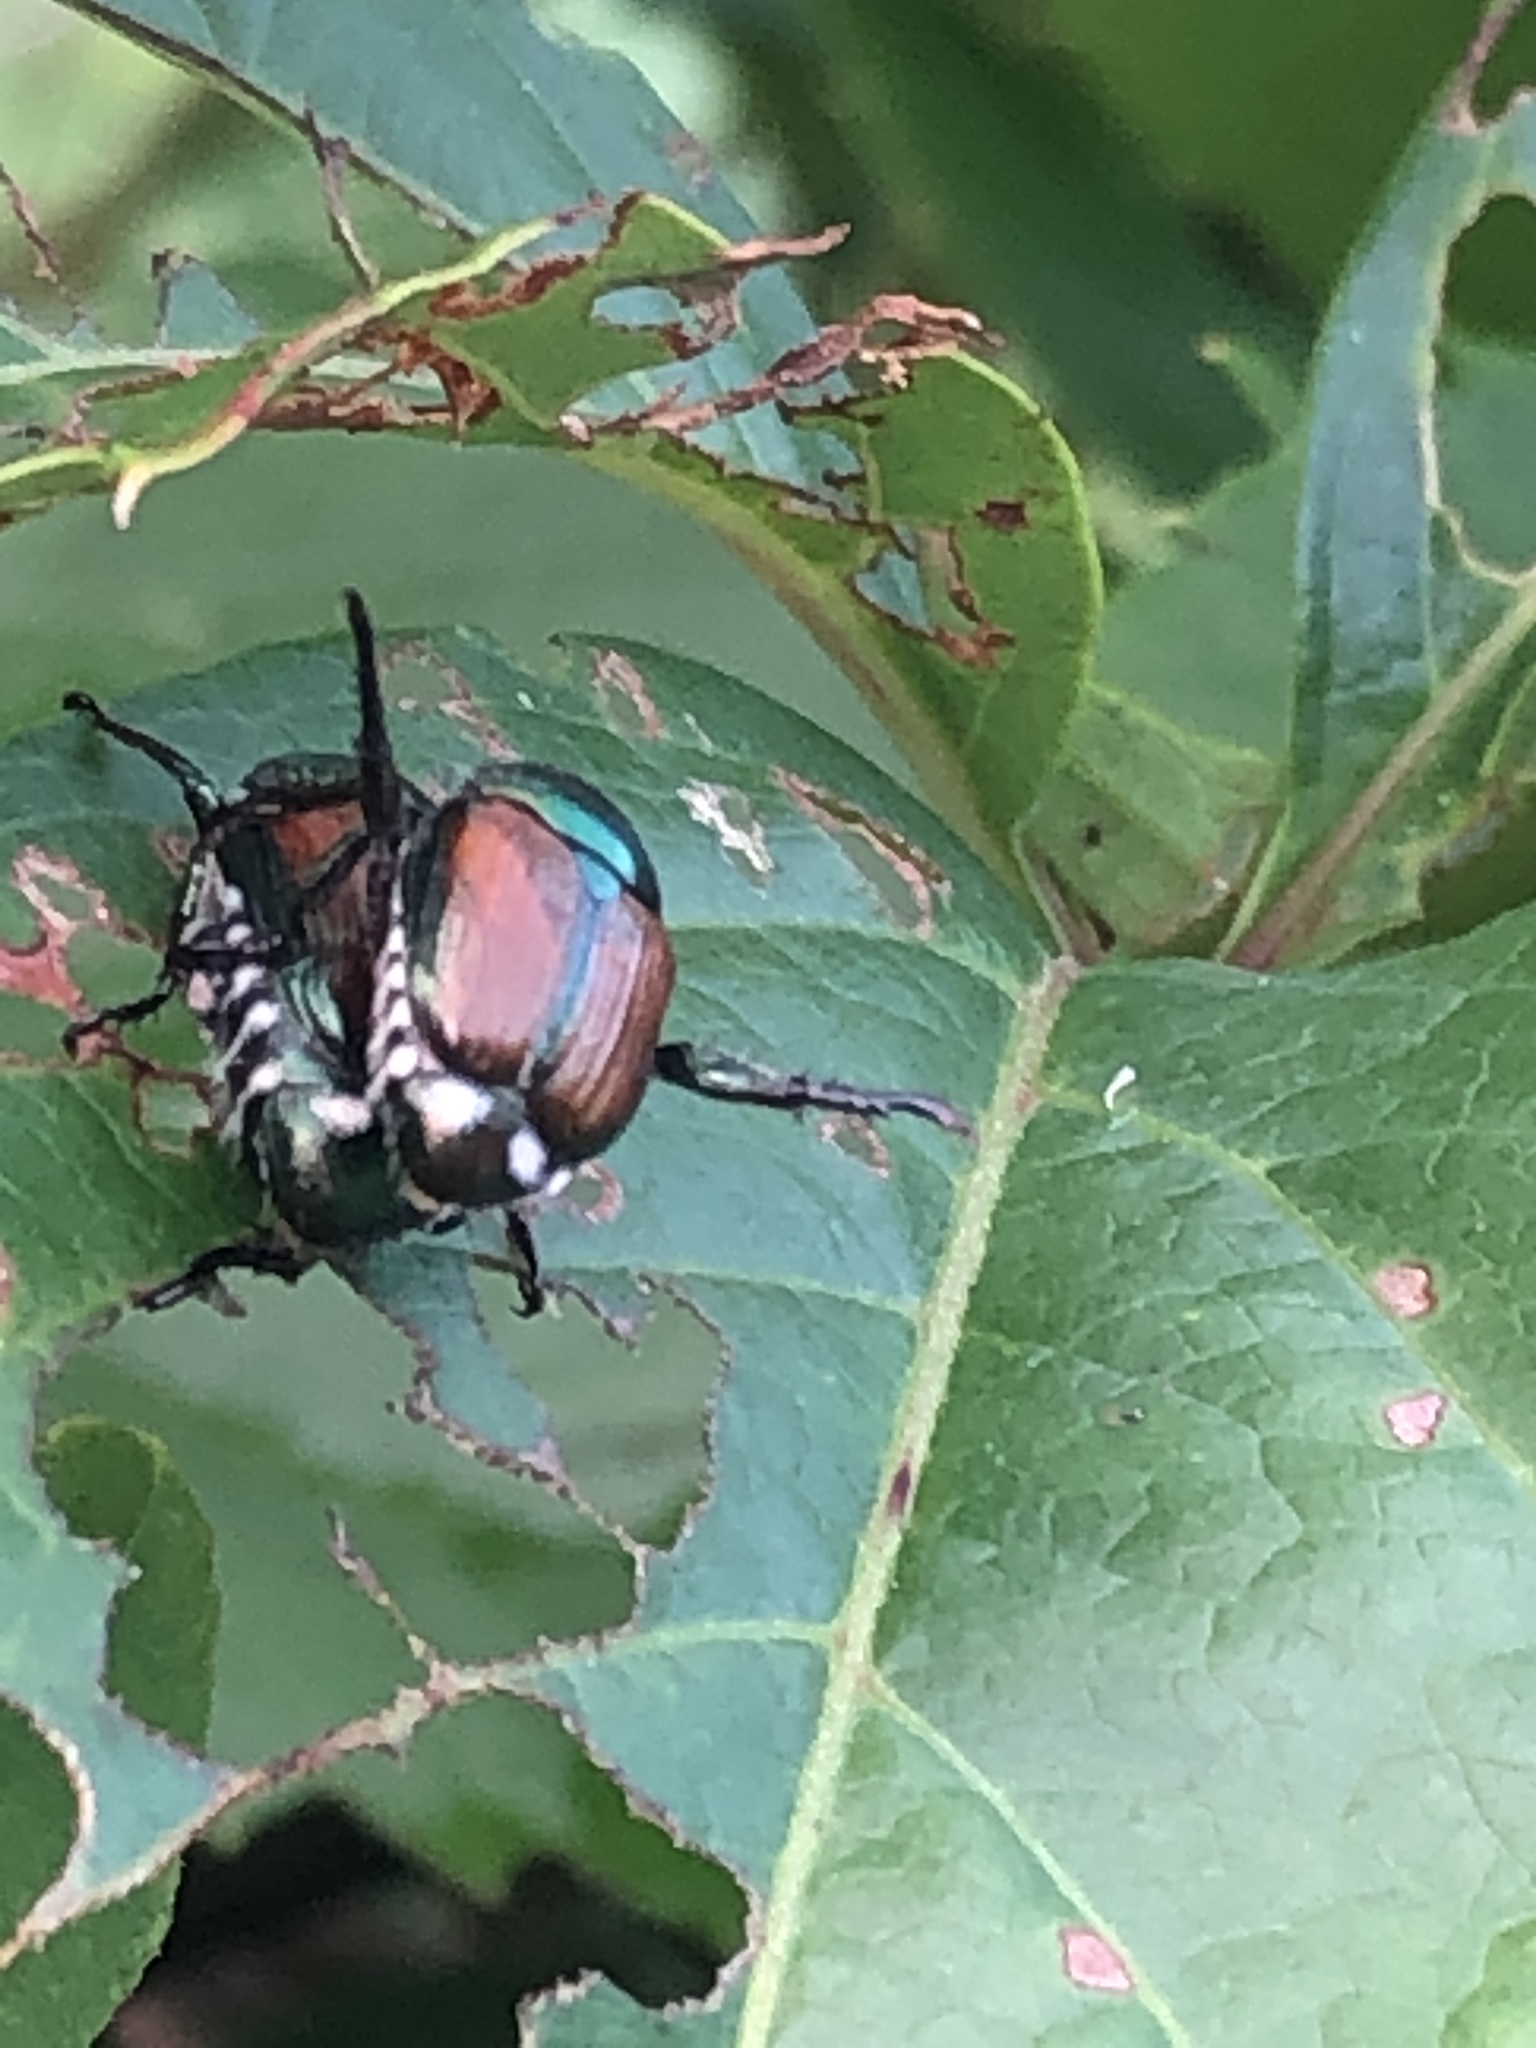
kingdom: Animalia
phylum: Arthropoda
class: Insecta
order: Coleoptera
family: Scarabaeidae
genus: Popillia
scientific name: Popillia japonica
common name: Japanese beetle
